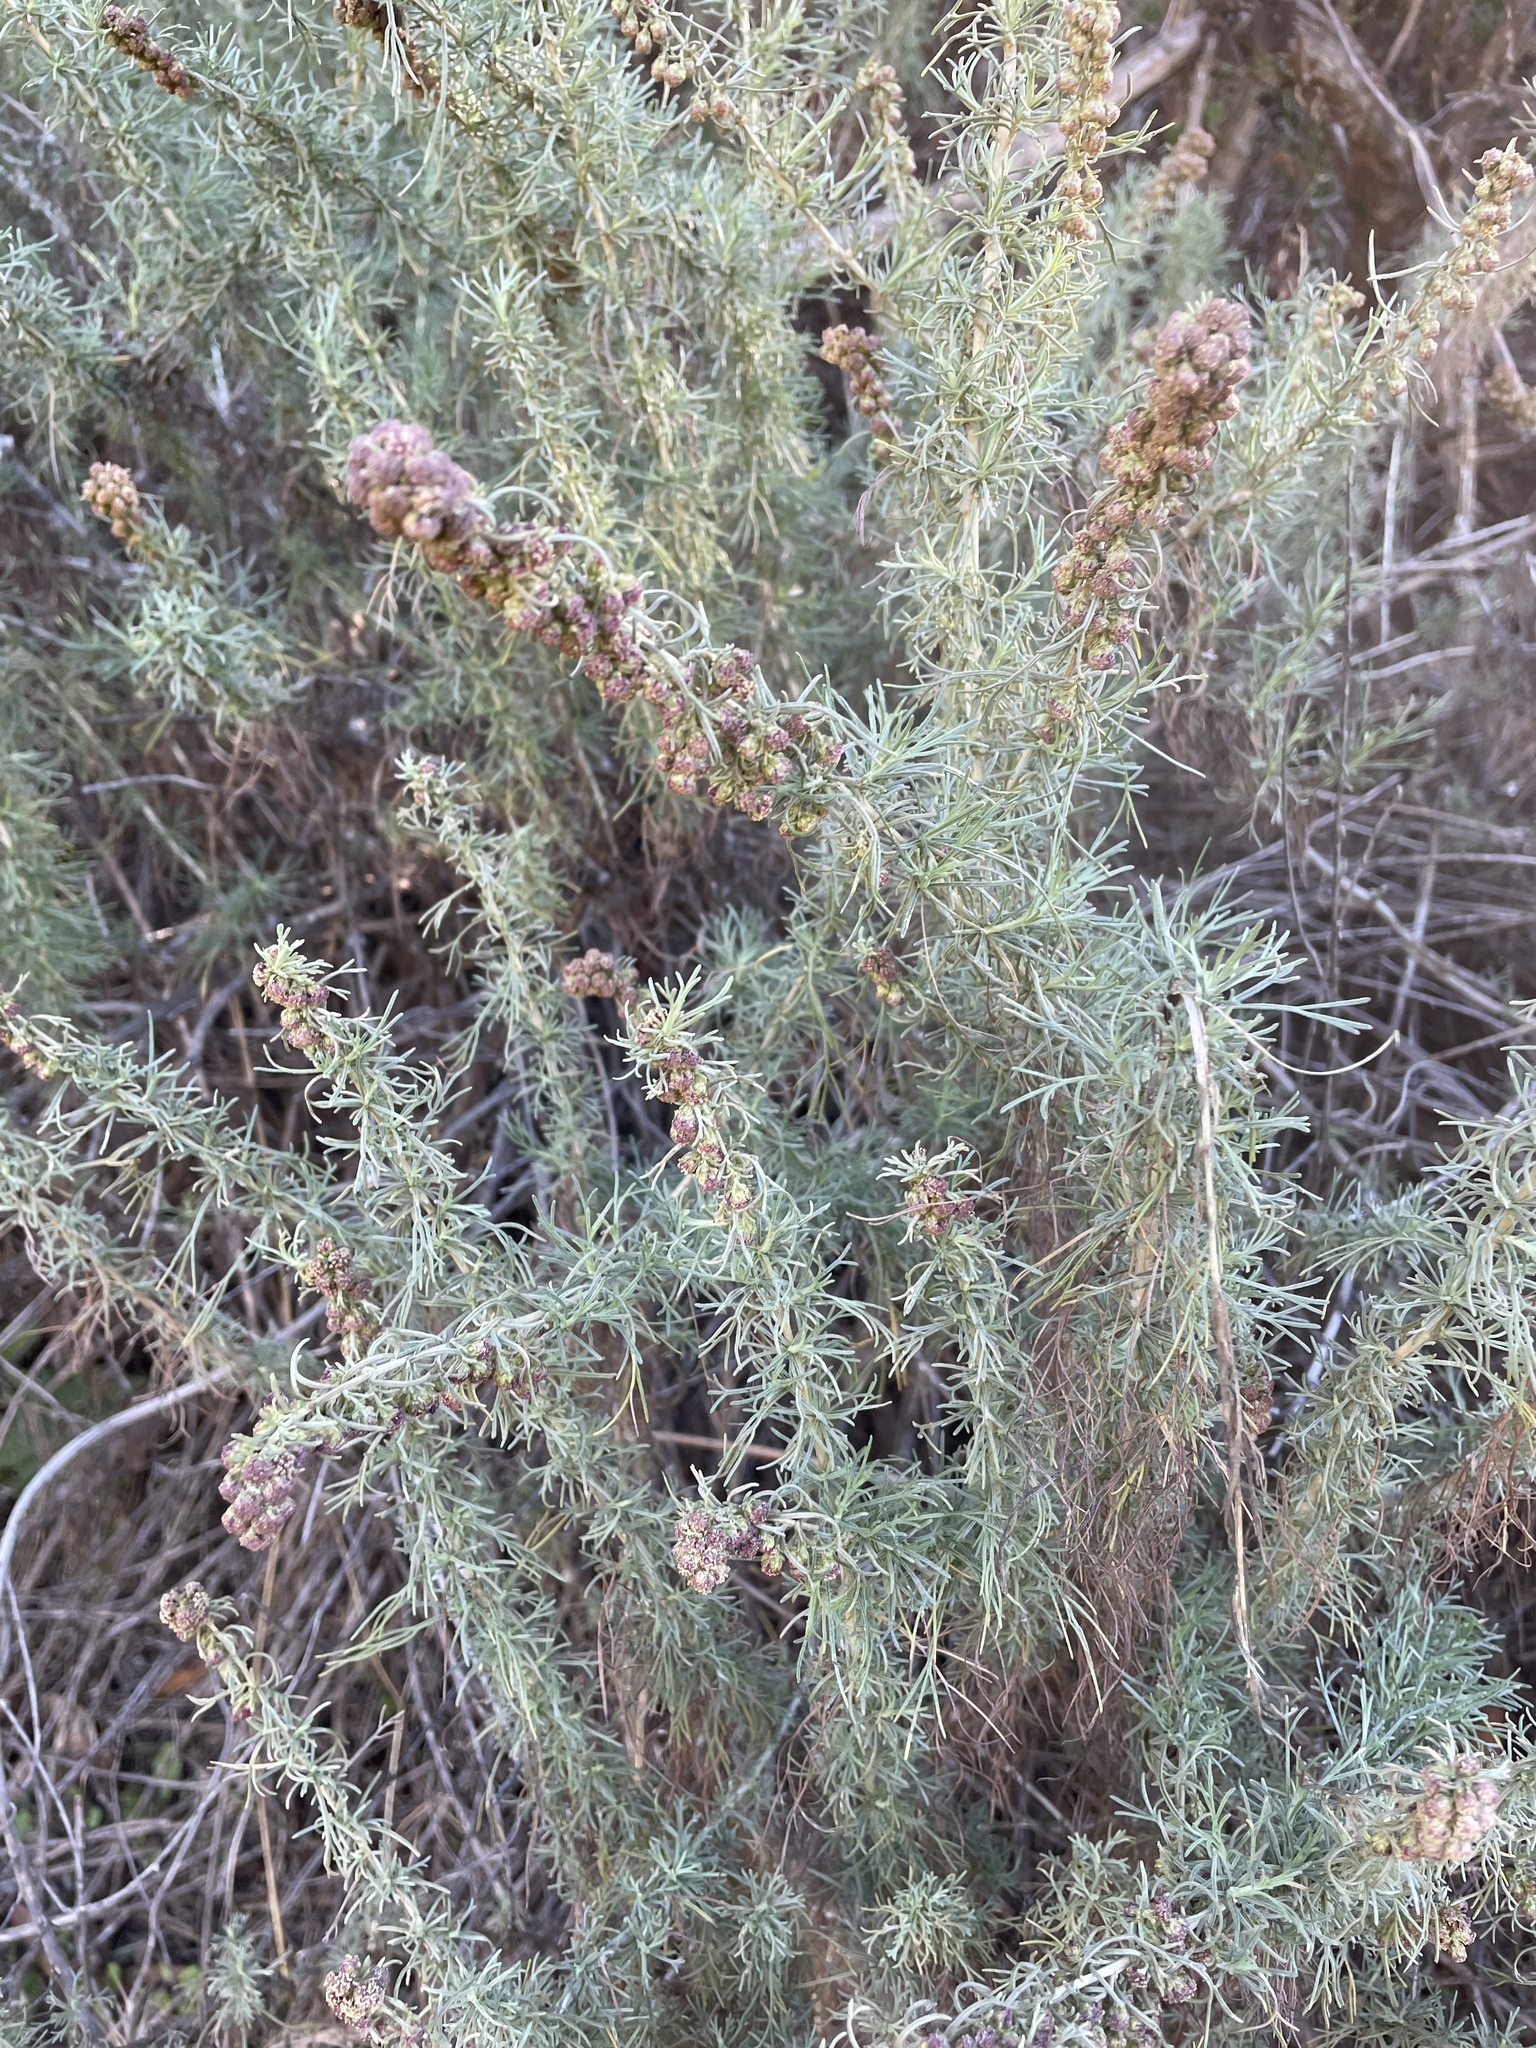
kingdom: Plantae
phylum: Tracheophyta
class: Magnoliopsida
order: Asterales
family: Asteraceae
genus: Artemisia
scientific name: Artemisia californica
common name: California sagebrush
